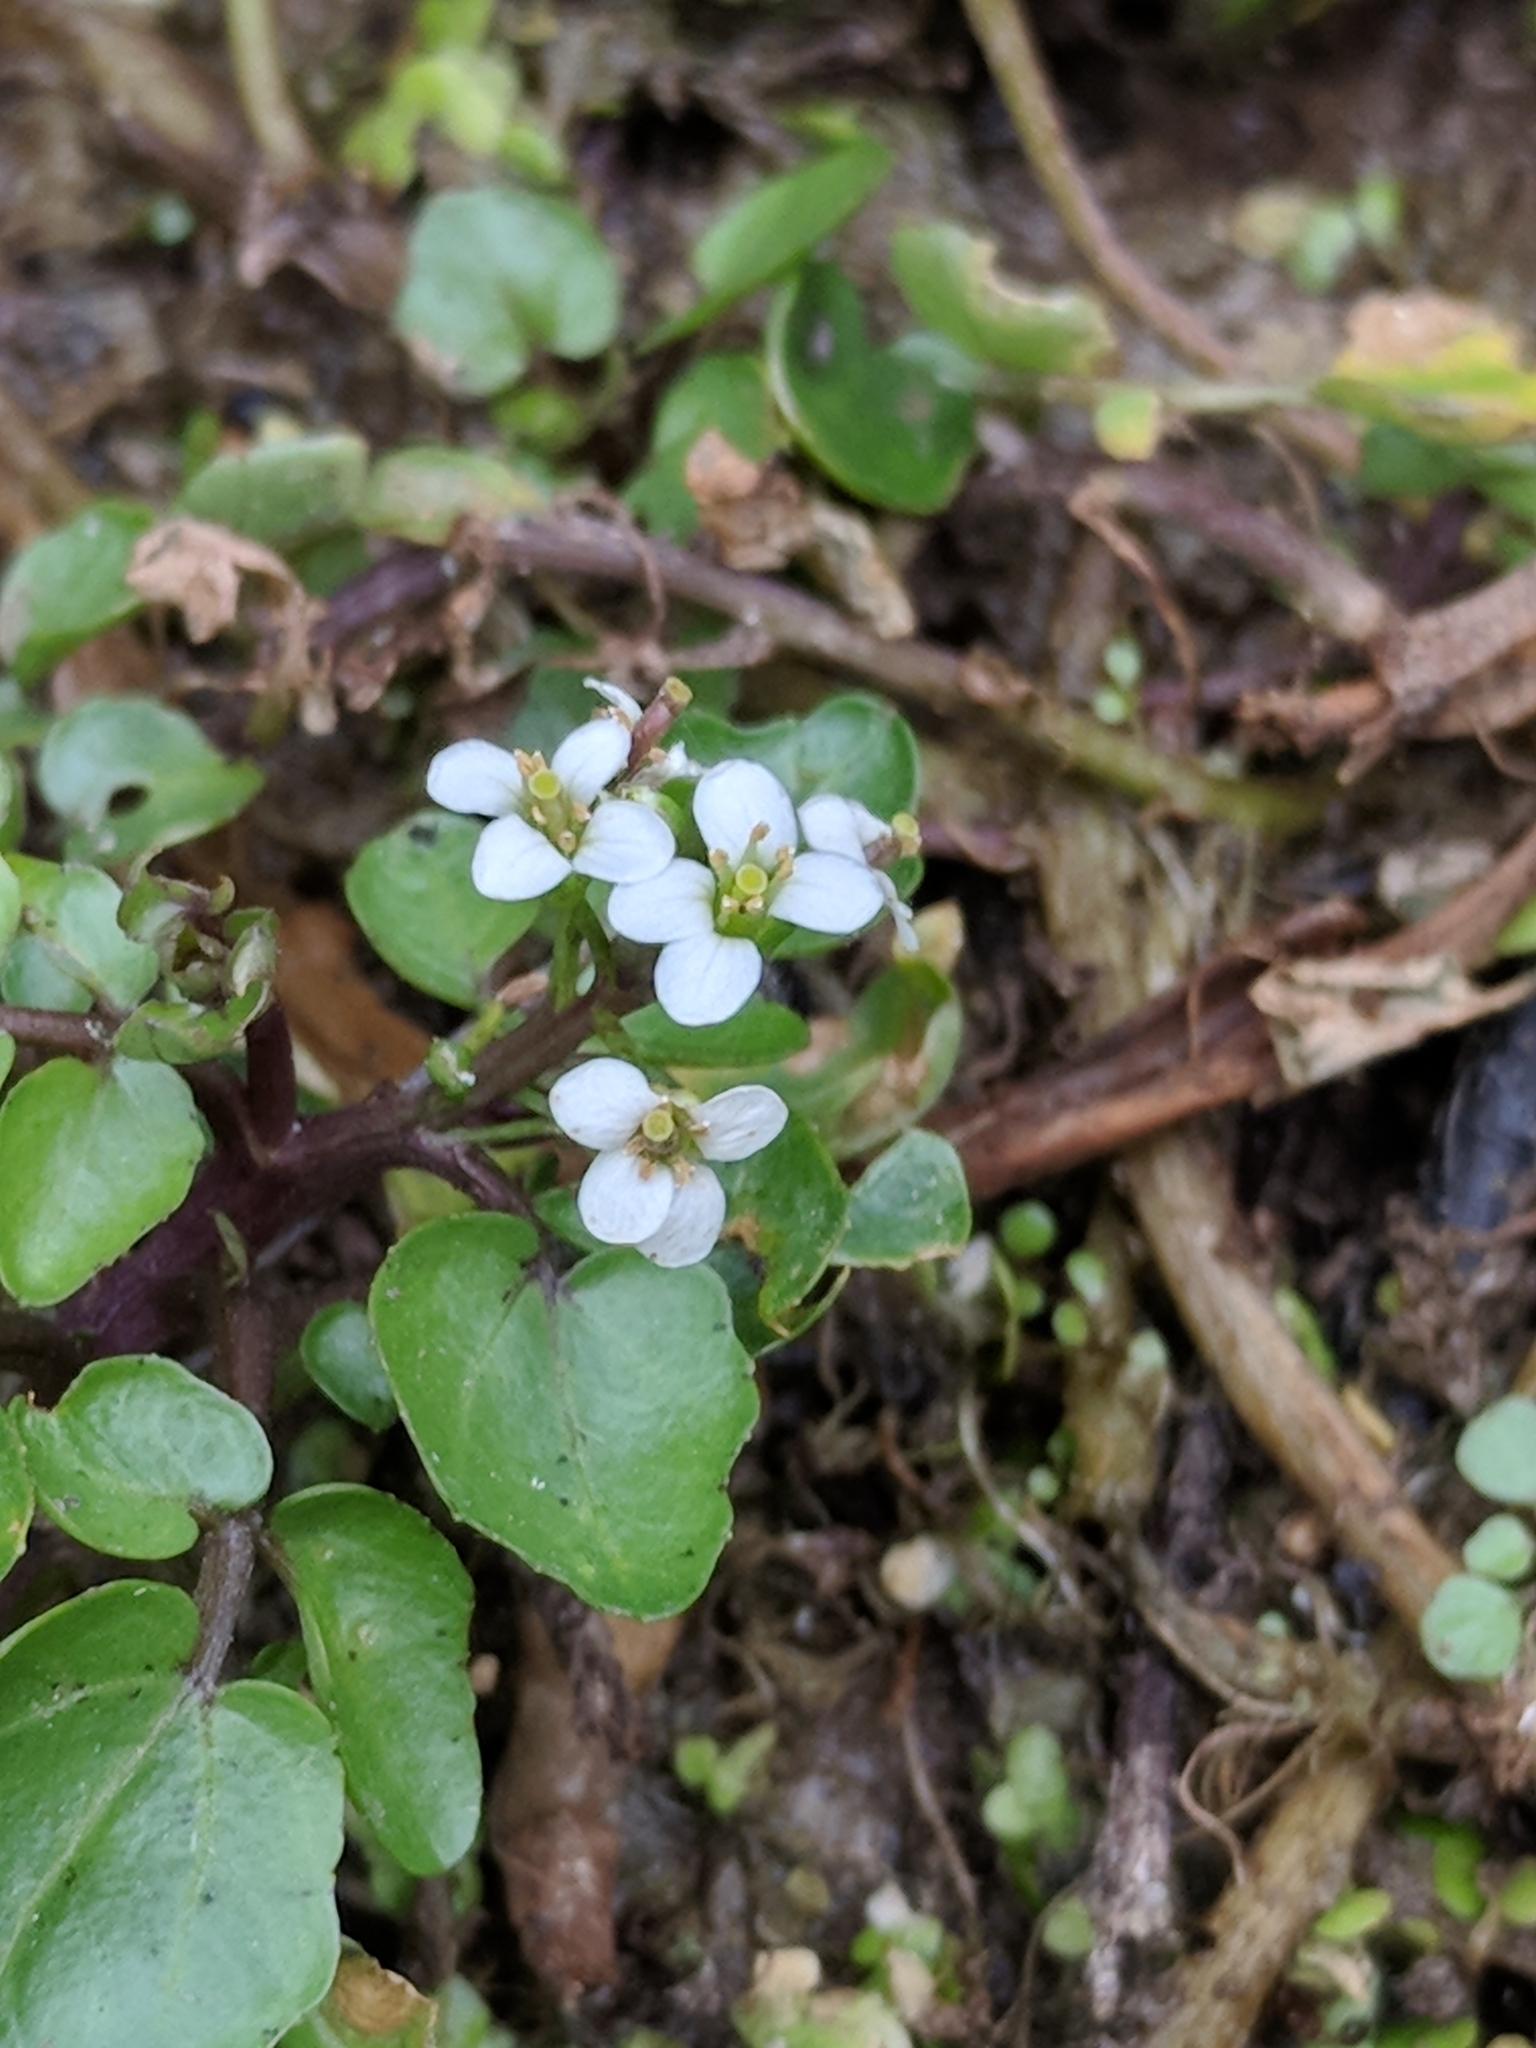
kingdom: Plantae
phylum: Tracheophyta
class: Magnoliopsida
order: Brassicales
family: Brassicaceae
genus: Nasturtium
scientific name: Nasturtium officinale
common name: Watercress
